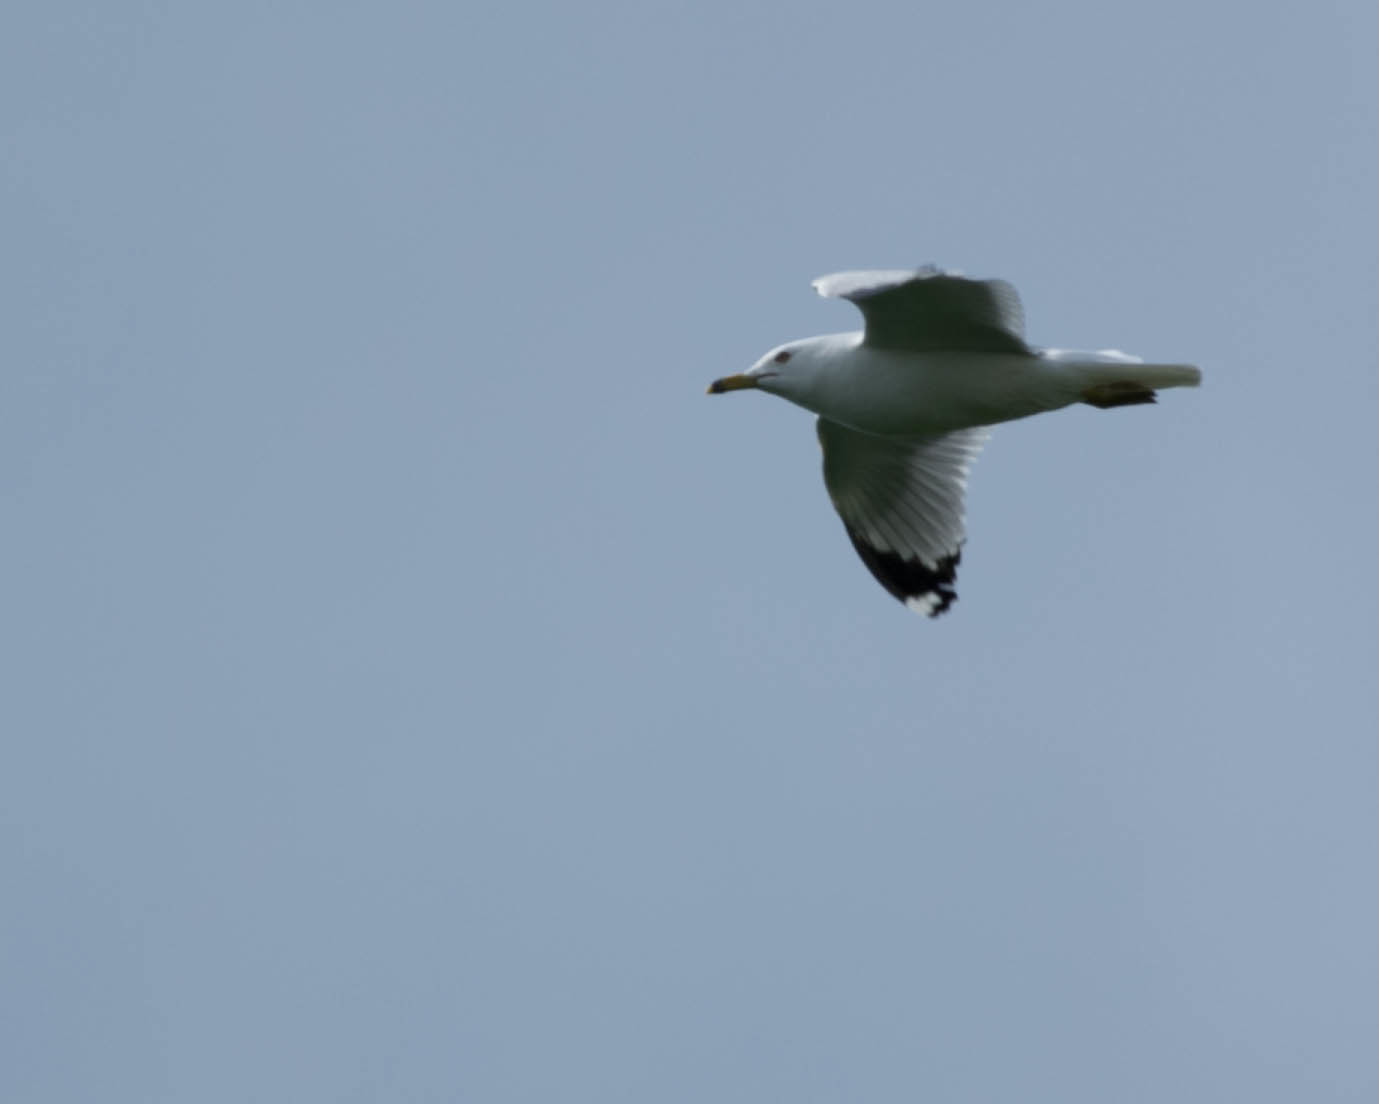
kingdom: Animalia
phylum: Chordata
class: Aves
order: Charadriiformes
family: Laridae
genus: Larus
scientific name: Larus delawarensis
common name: Ring-billed gull
